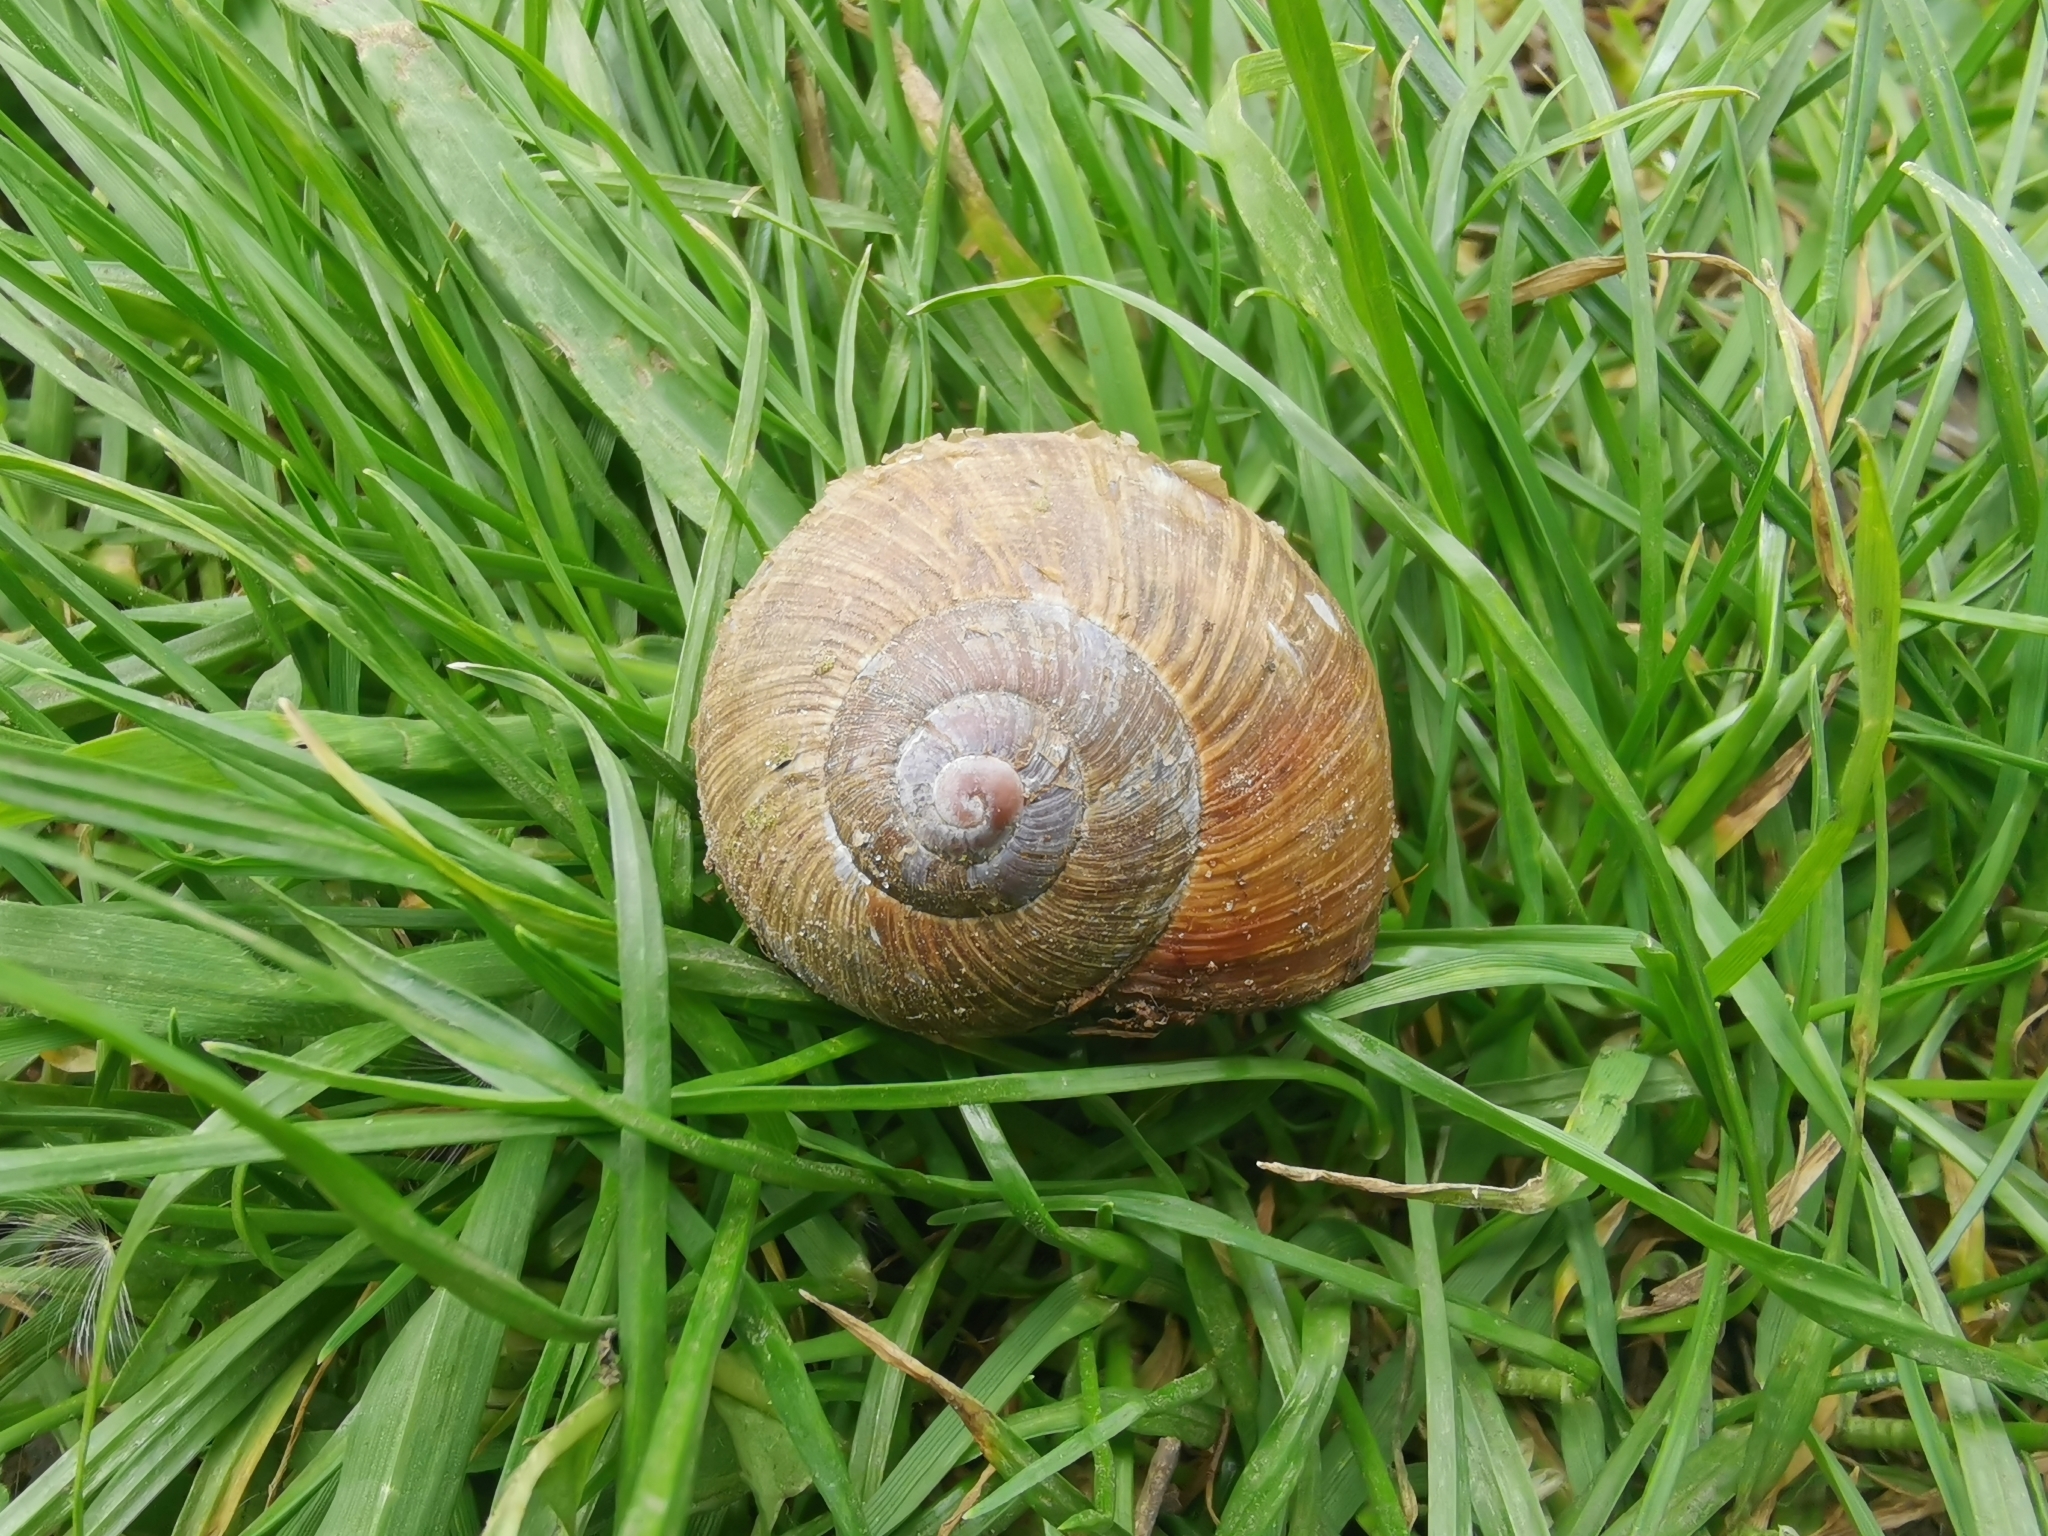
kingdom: Animalia
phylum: Mollusca
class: Gastropoda
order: Stylommatophora
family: Helicidae
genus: Helix
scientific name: Helix pomatia
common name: Roman snail
